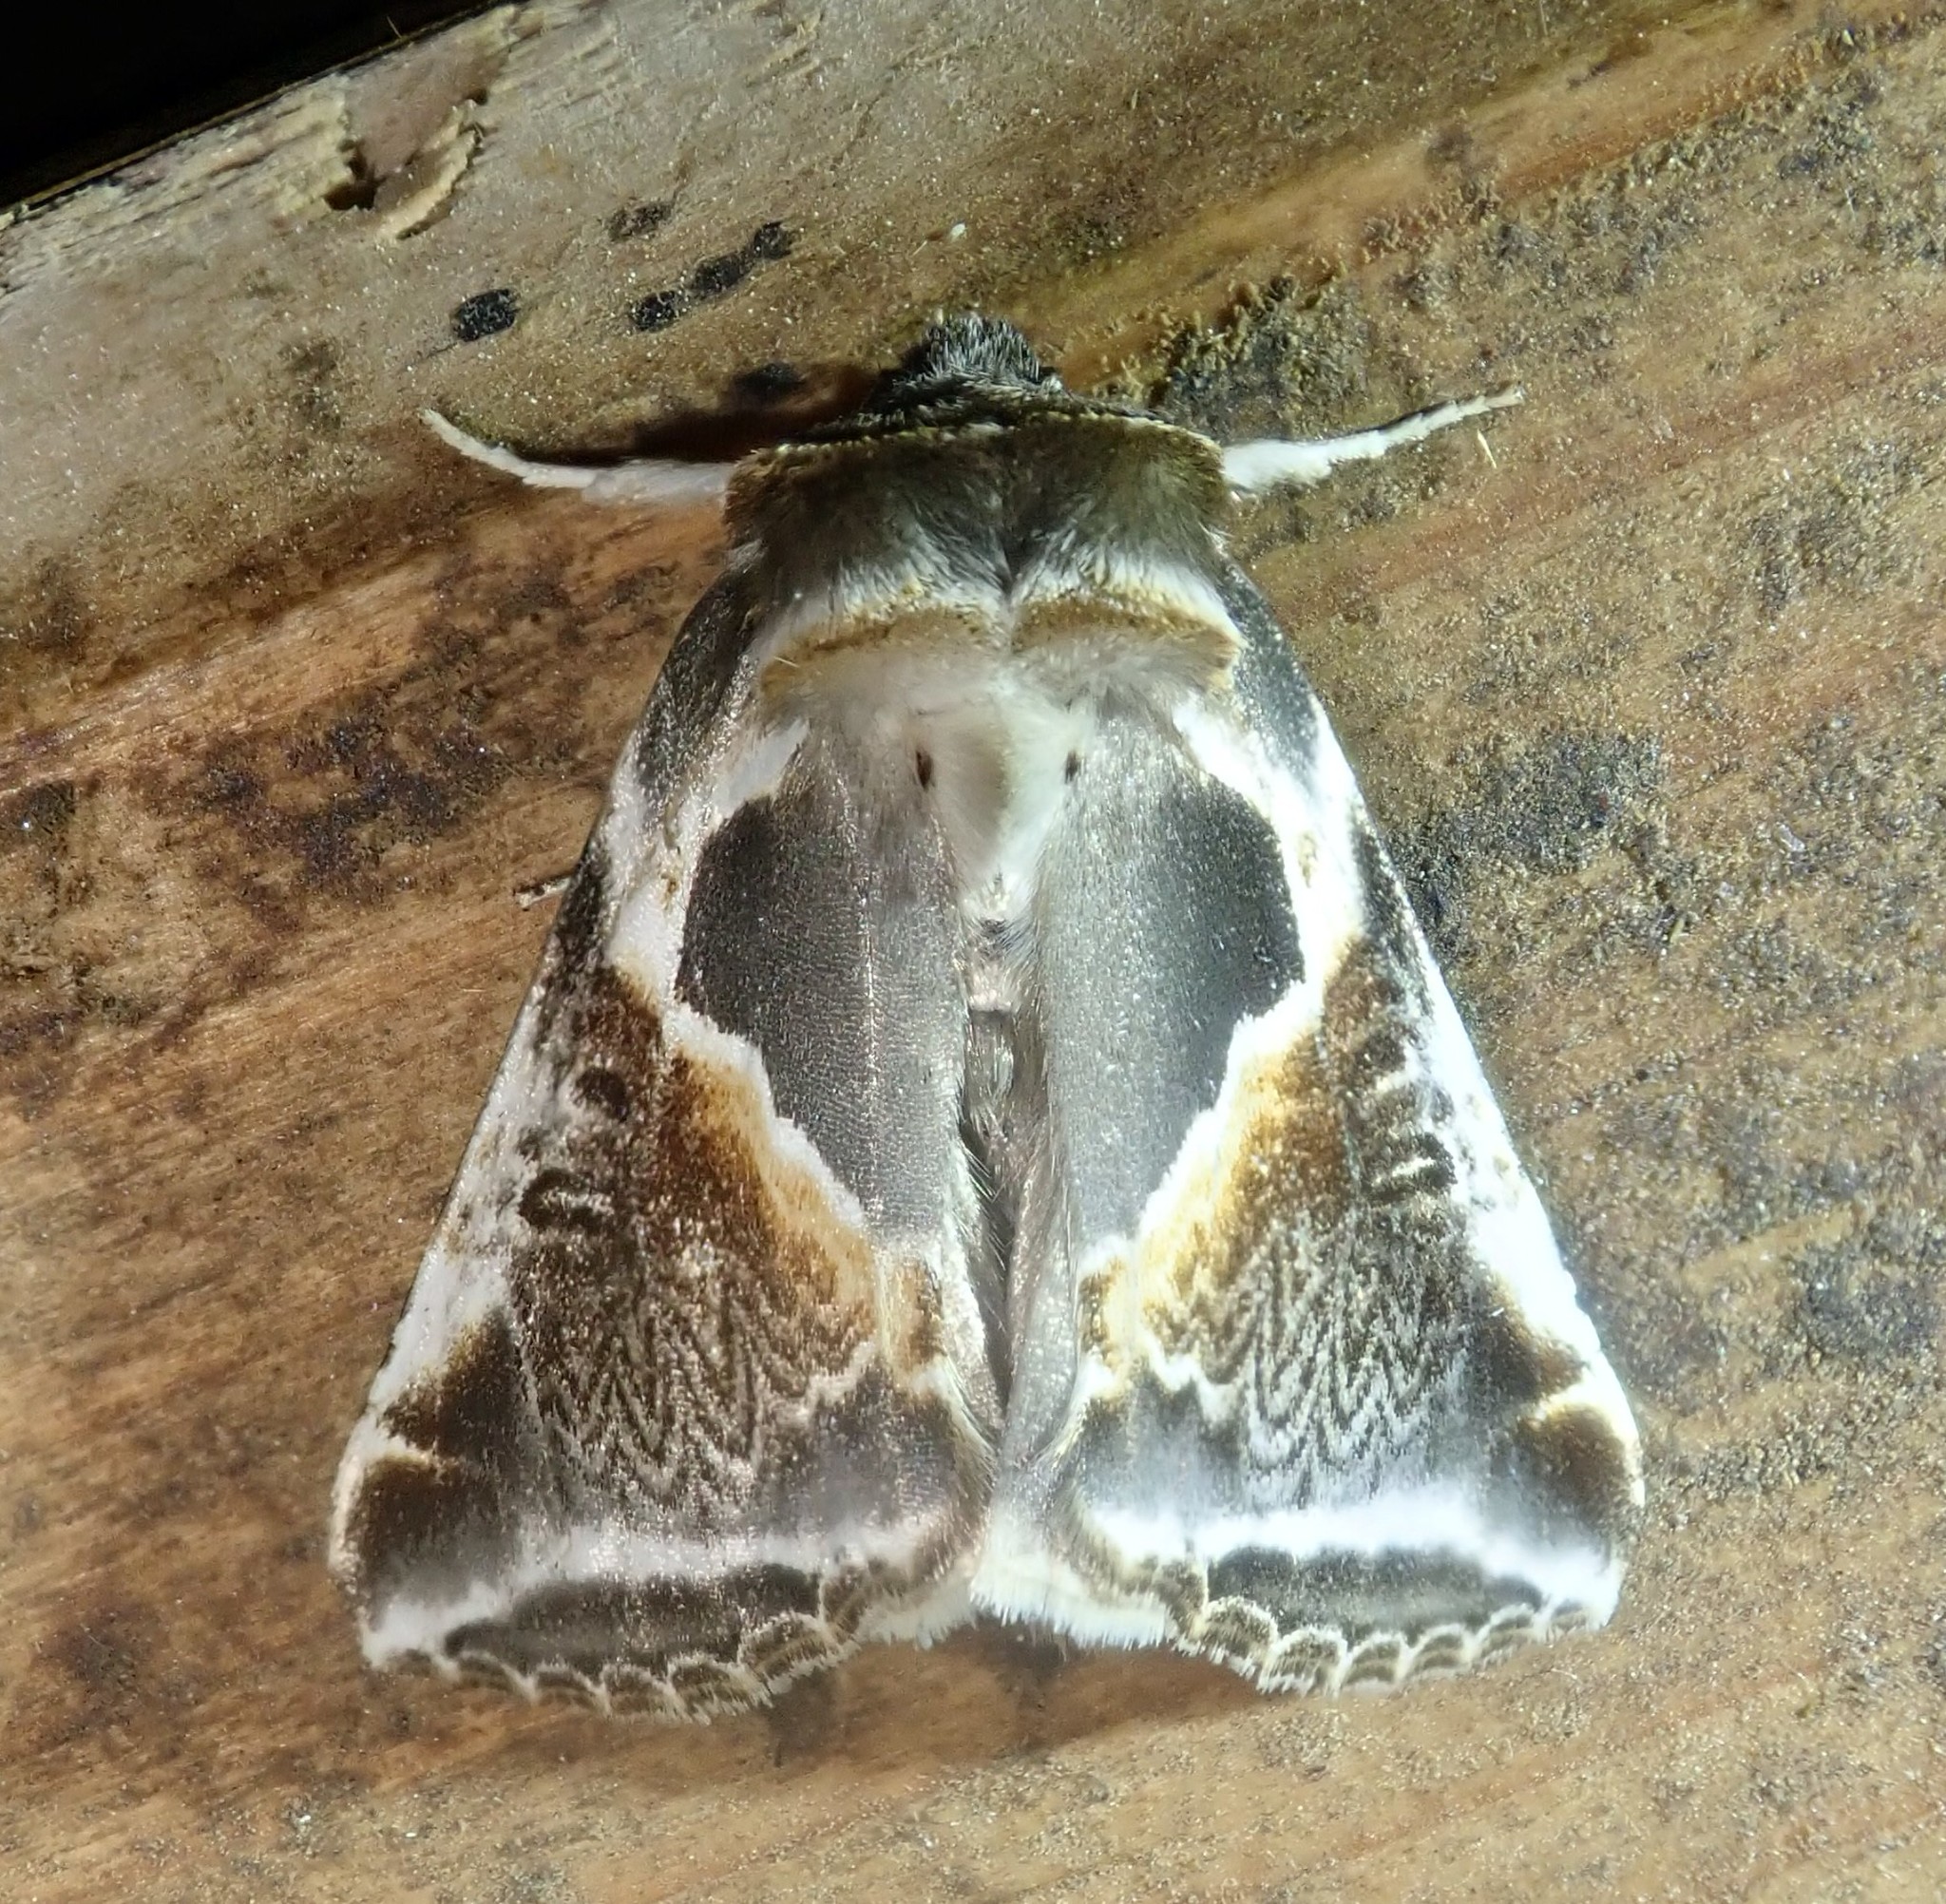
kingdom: Animalia
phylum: Arthropoda
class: Insecta
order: Lepidoptera
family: Drepanidae
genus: Habrosyne
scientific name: Habrosyne pyritoides
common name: Buff arches
